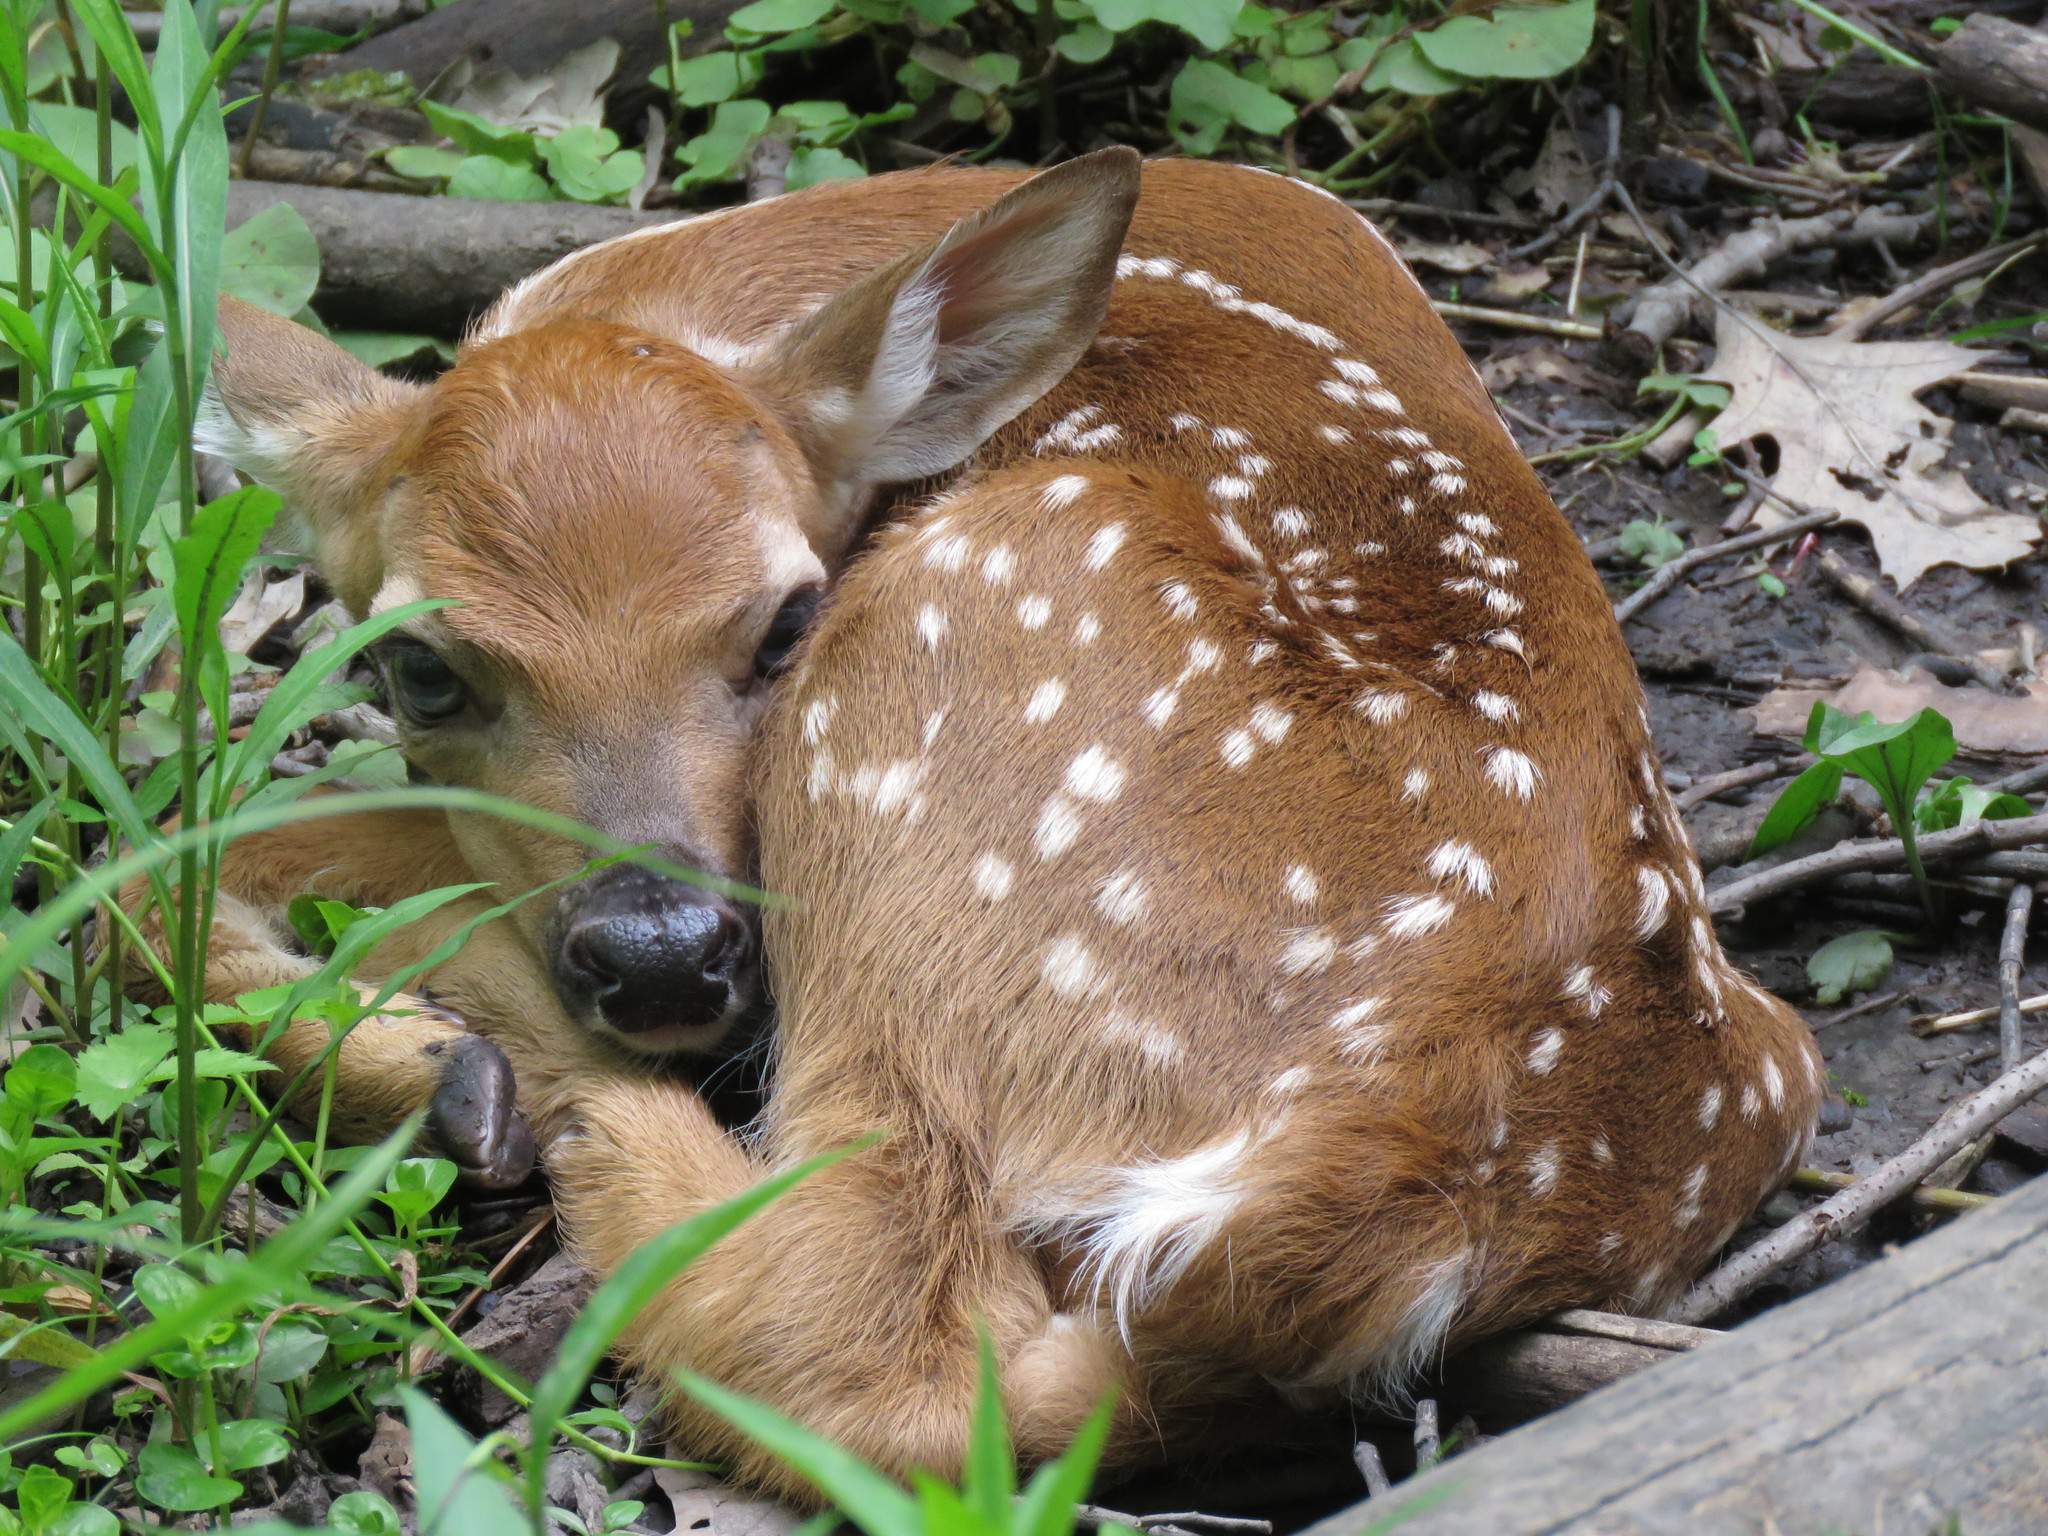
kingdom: Animalia
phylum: Chordata
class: Mammalia
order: Artiodactyla
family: Cervidae
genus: Odocoileus
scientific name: Odocoileus virginianus
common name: White-tailed deer
